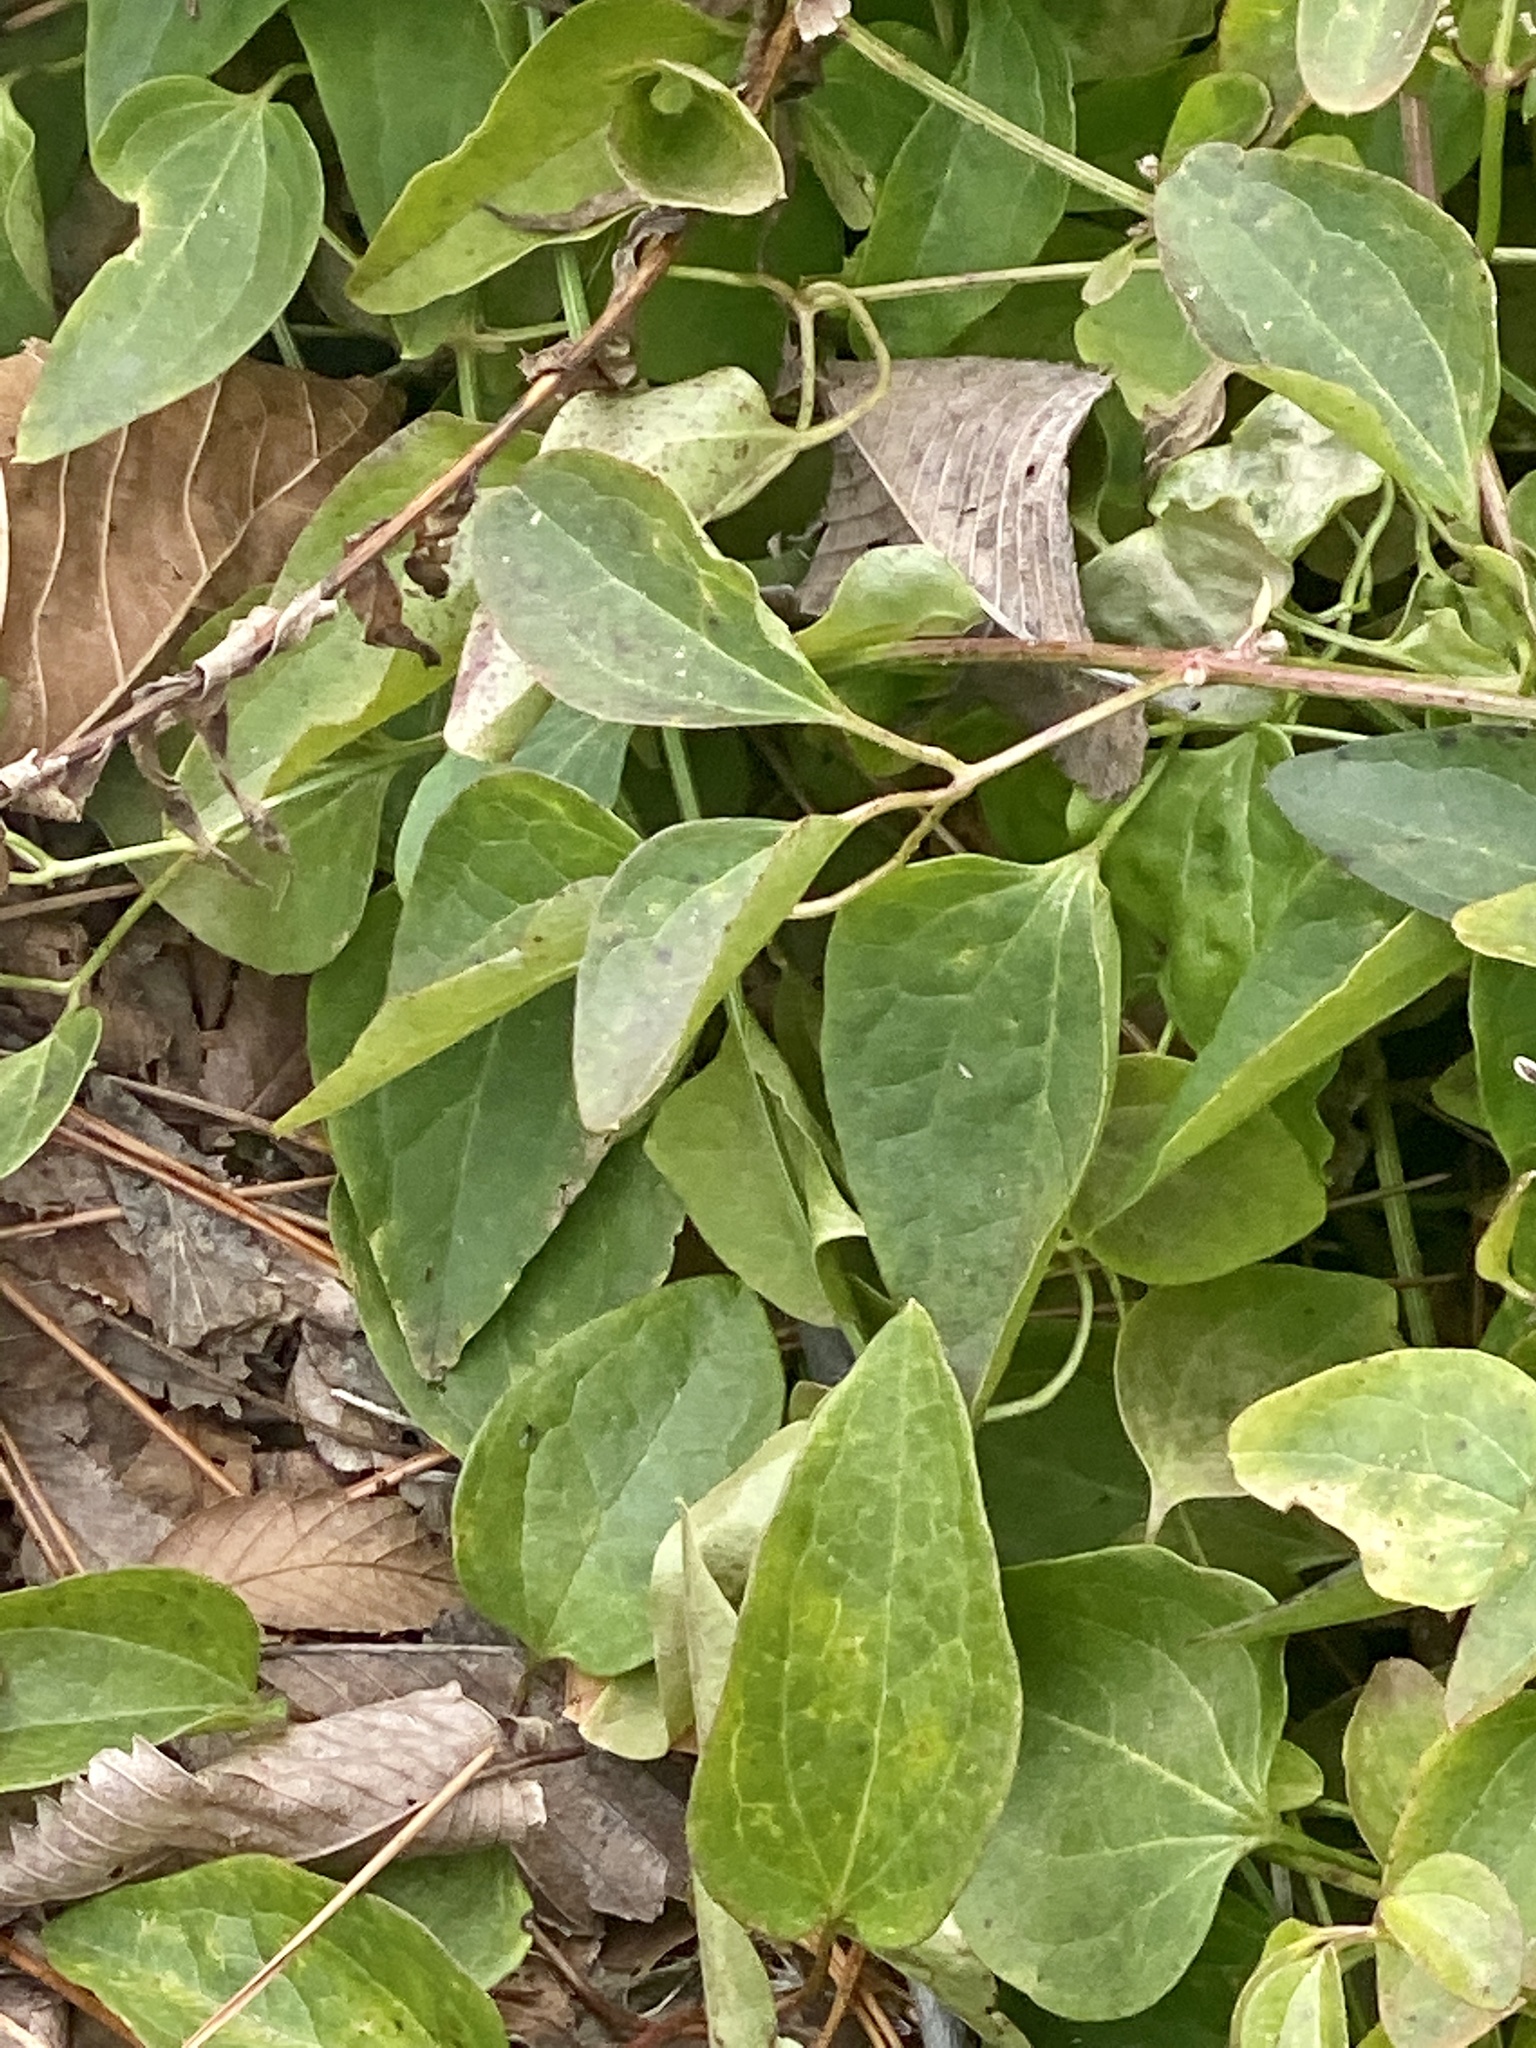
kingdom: Plantae
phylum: Tracheophyta
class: Magnoliopsida
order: Ranunculales
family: Ranunculaceae
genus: Clematis
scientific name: Clematis terniflora
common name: Sweet autumn clematis
